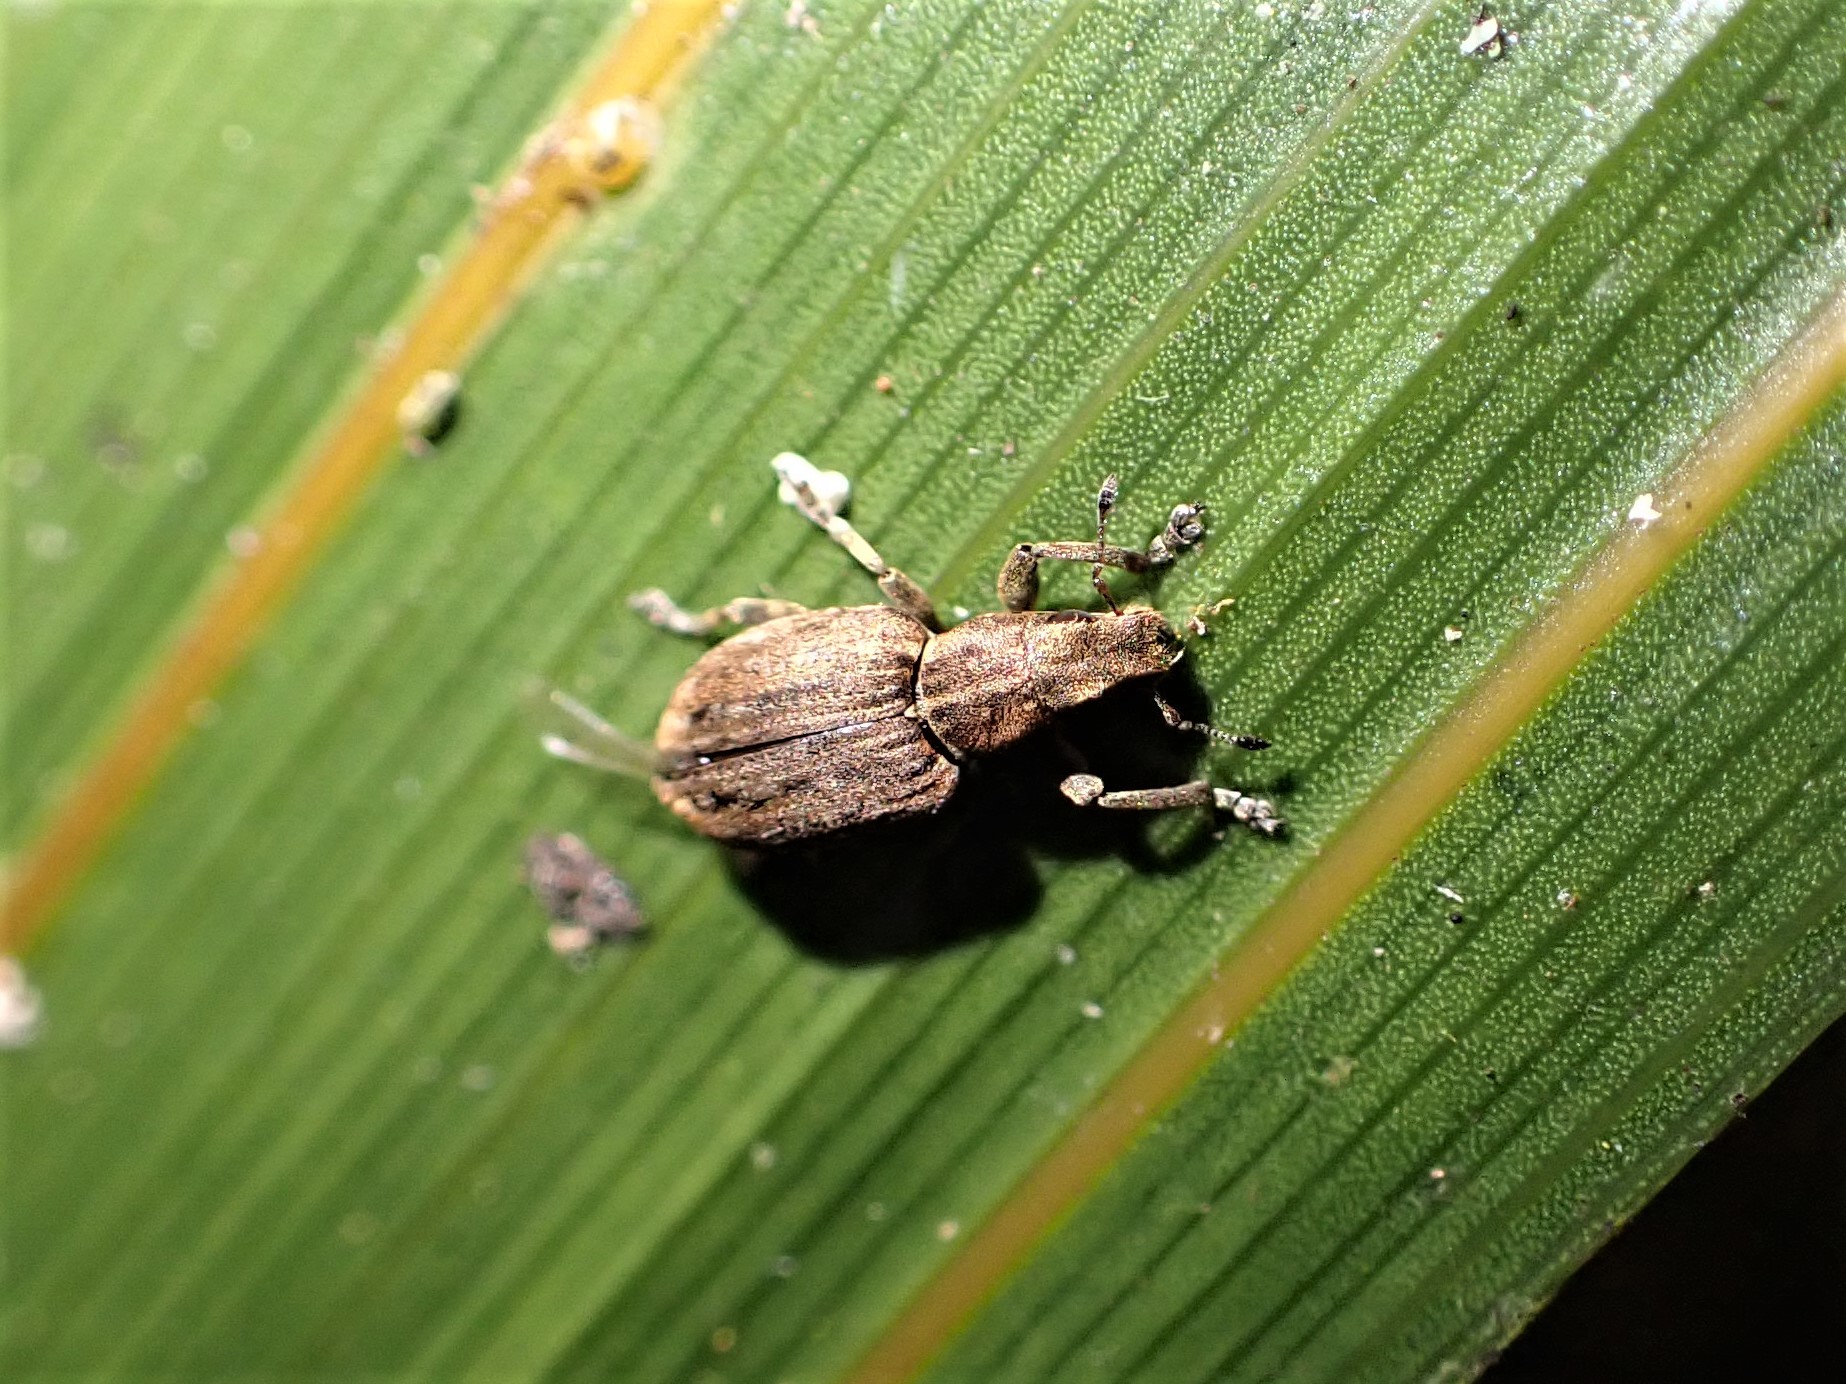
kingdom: Animalia
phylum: Arthropoda
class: Insecta
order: Coleoptera
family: Curculionidae
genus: Sitona
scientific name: Sitona obsoletus
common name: Weevil
